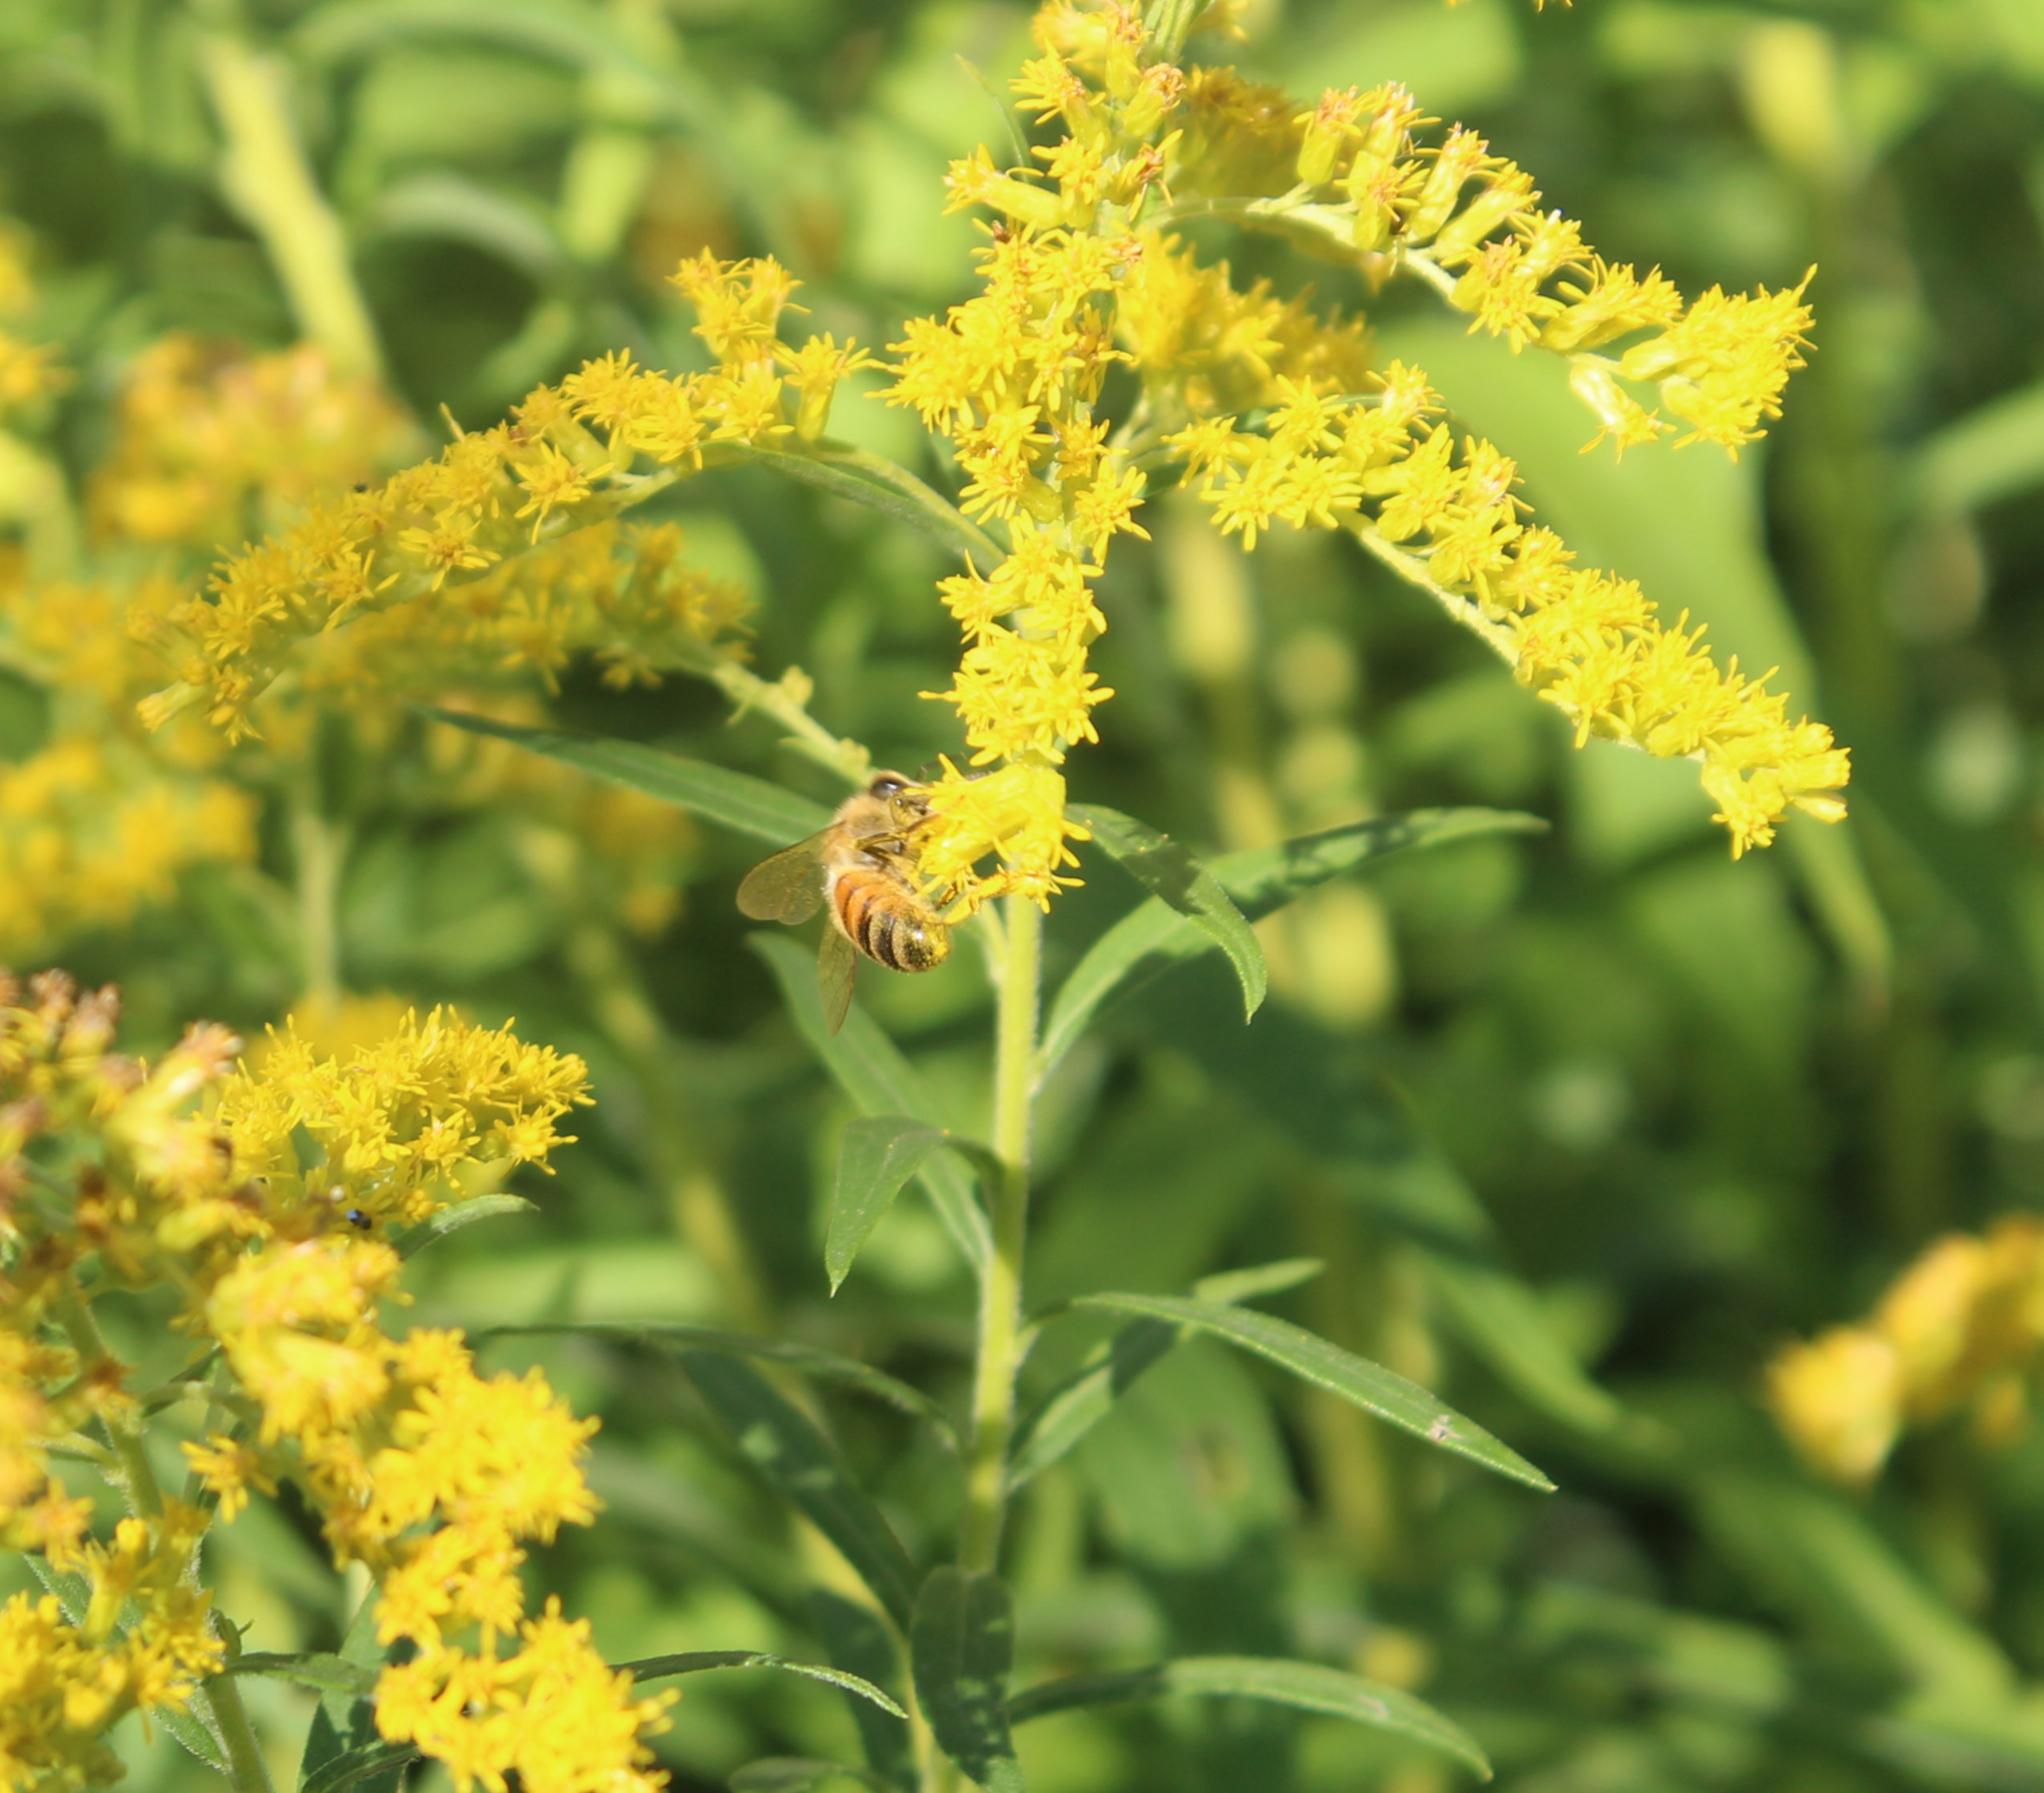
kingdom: Animalia
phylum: Arthropoda
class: Insecta
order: Hymenoptera
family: Apidae
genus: Apis
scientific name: Apis mellifera
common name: Honey bee
